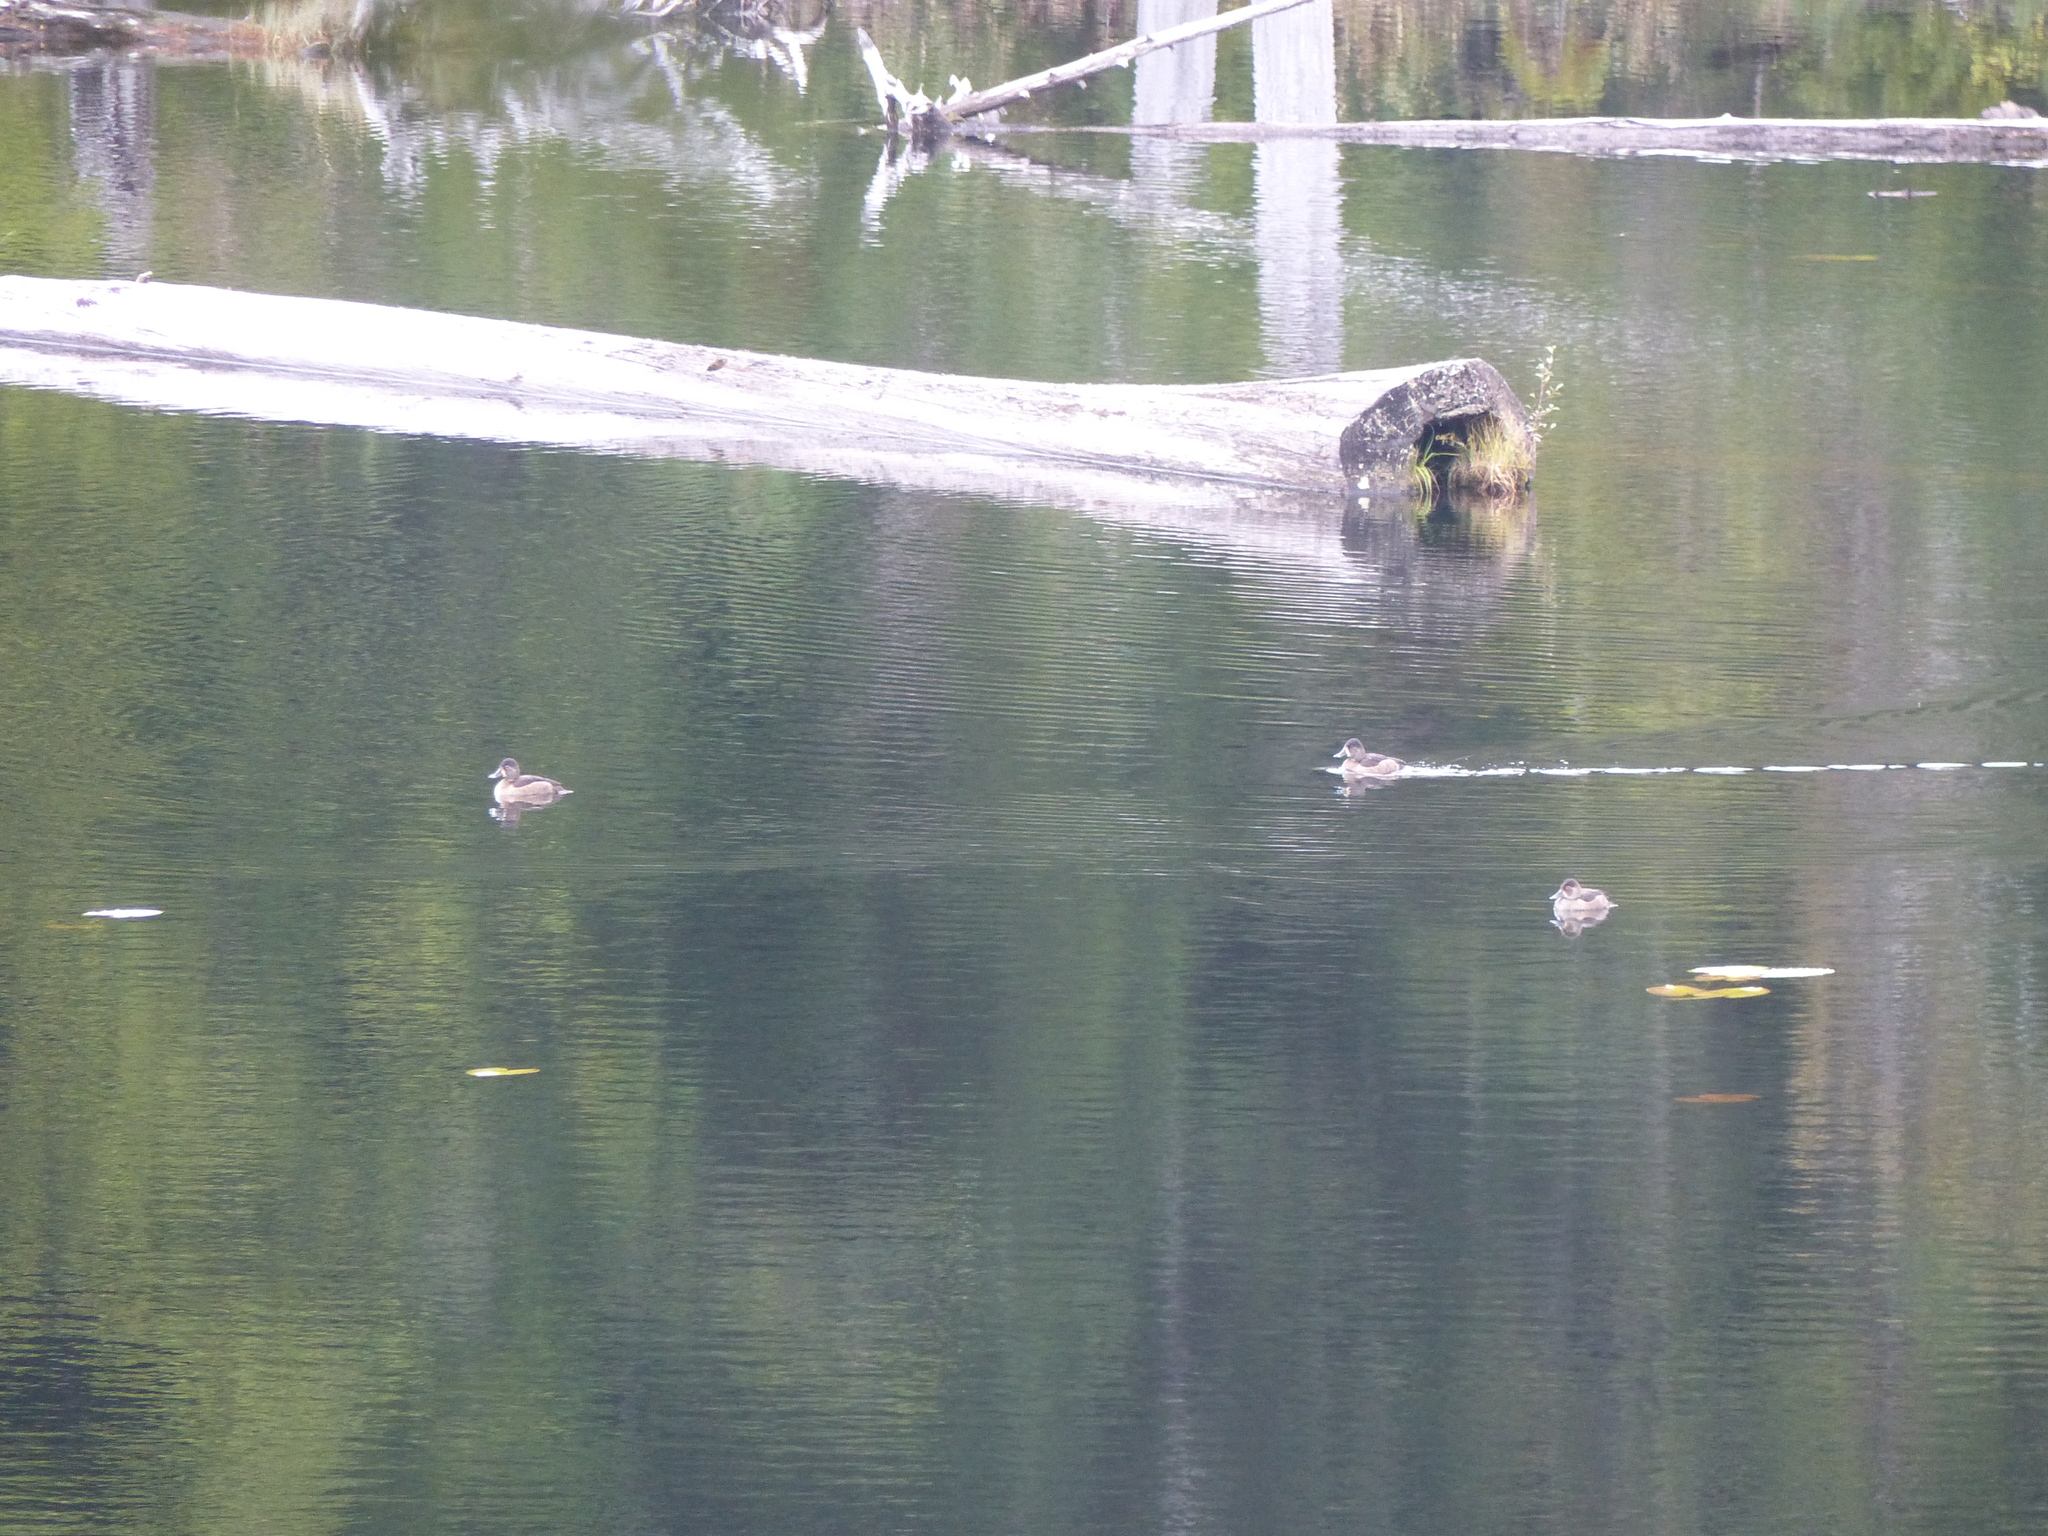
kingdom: Animalia
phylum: Chordata
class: Aves
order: Anseriformes
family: Anatidae
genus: Aythya
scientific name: Aythya collaris
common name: Ring-necked duck
